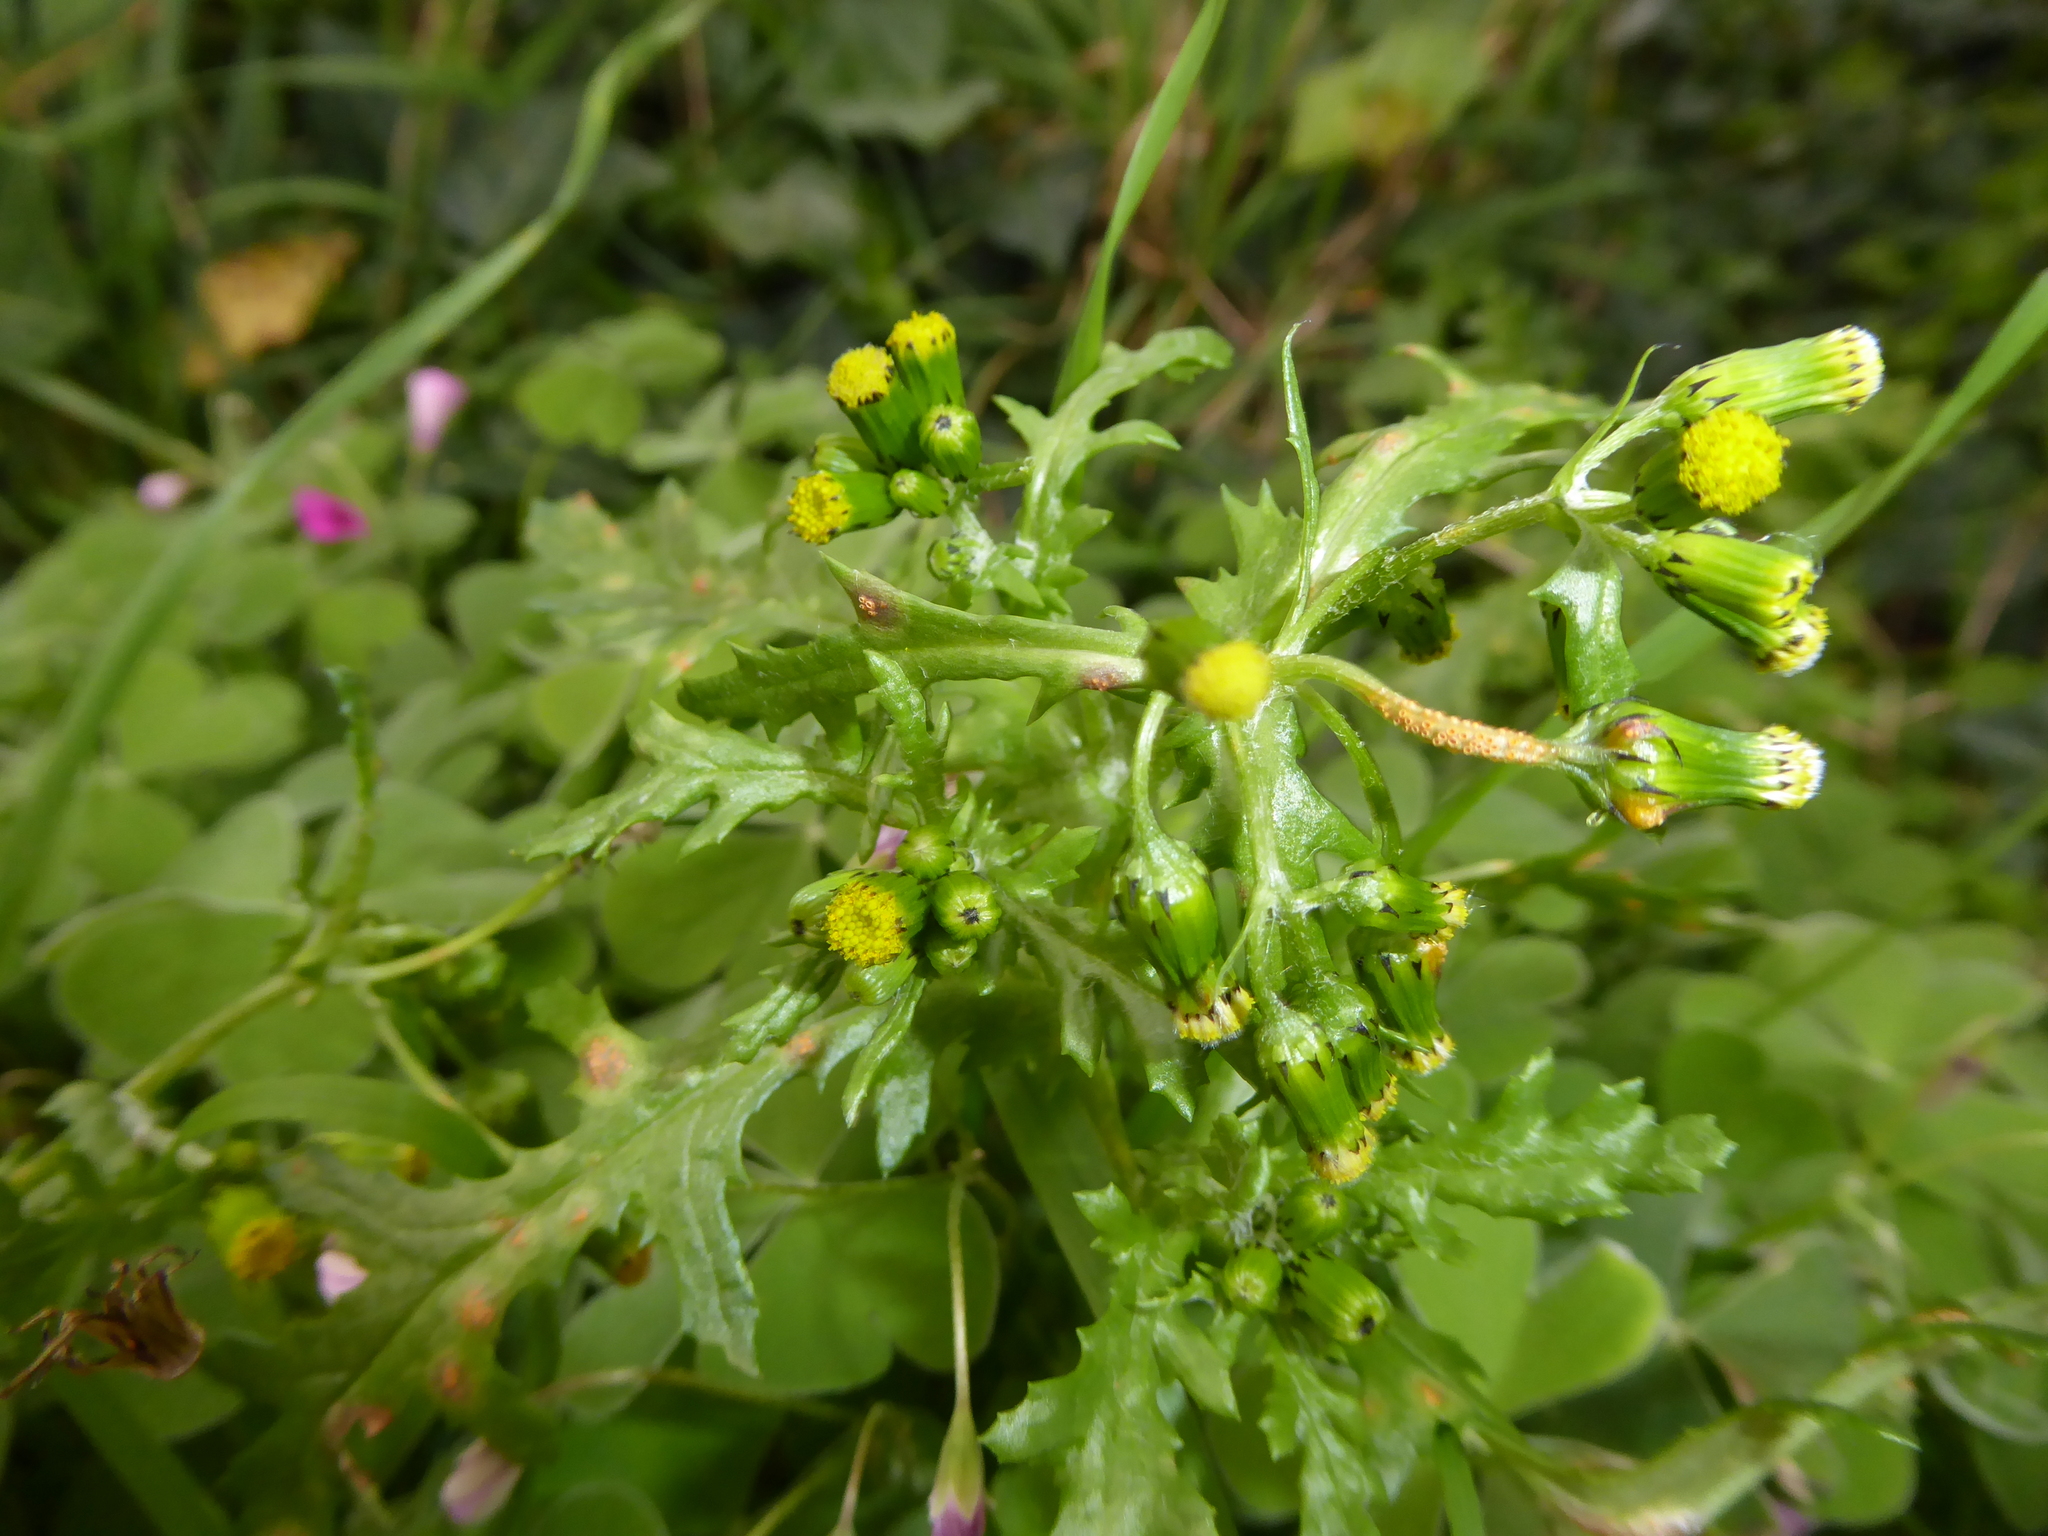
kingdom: Plantae
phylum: Tracheophyta
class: Magnoliopsida
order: Asterales
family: Asteraceae
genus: Senecio
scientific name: Senecio vulgaris
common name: Old-man-in-the-spring
